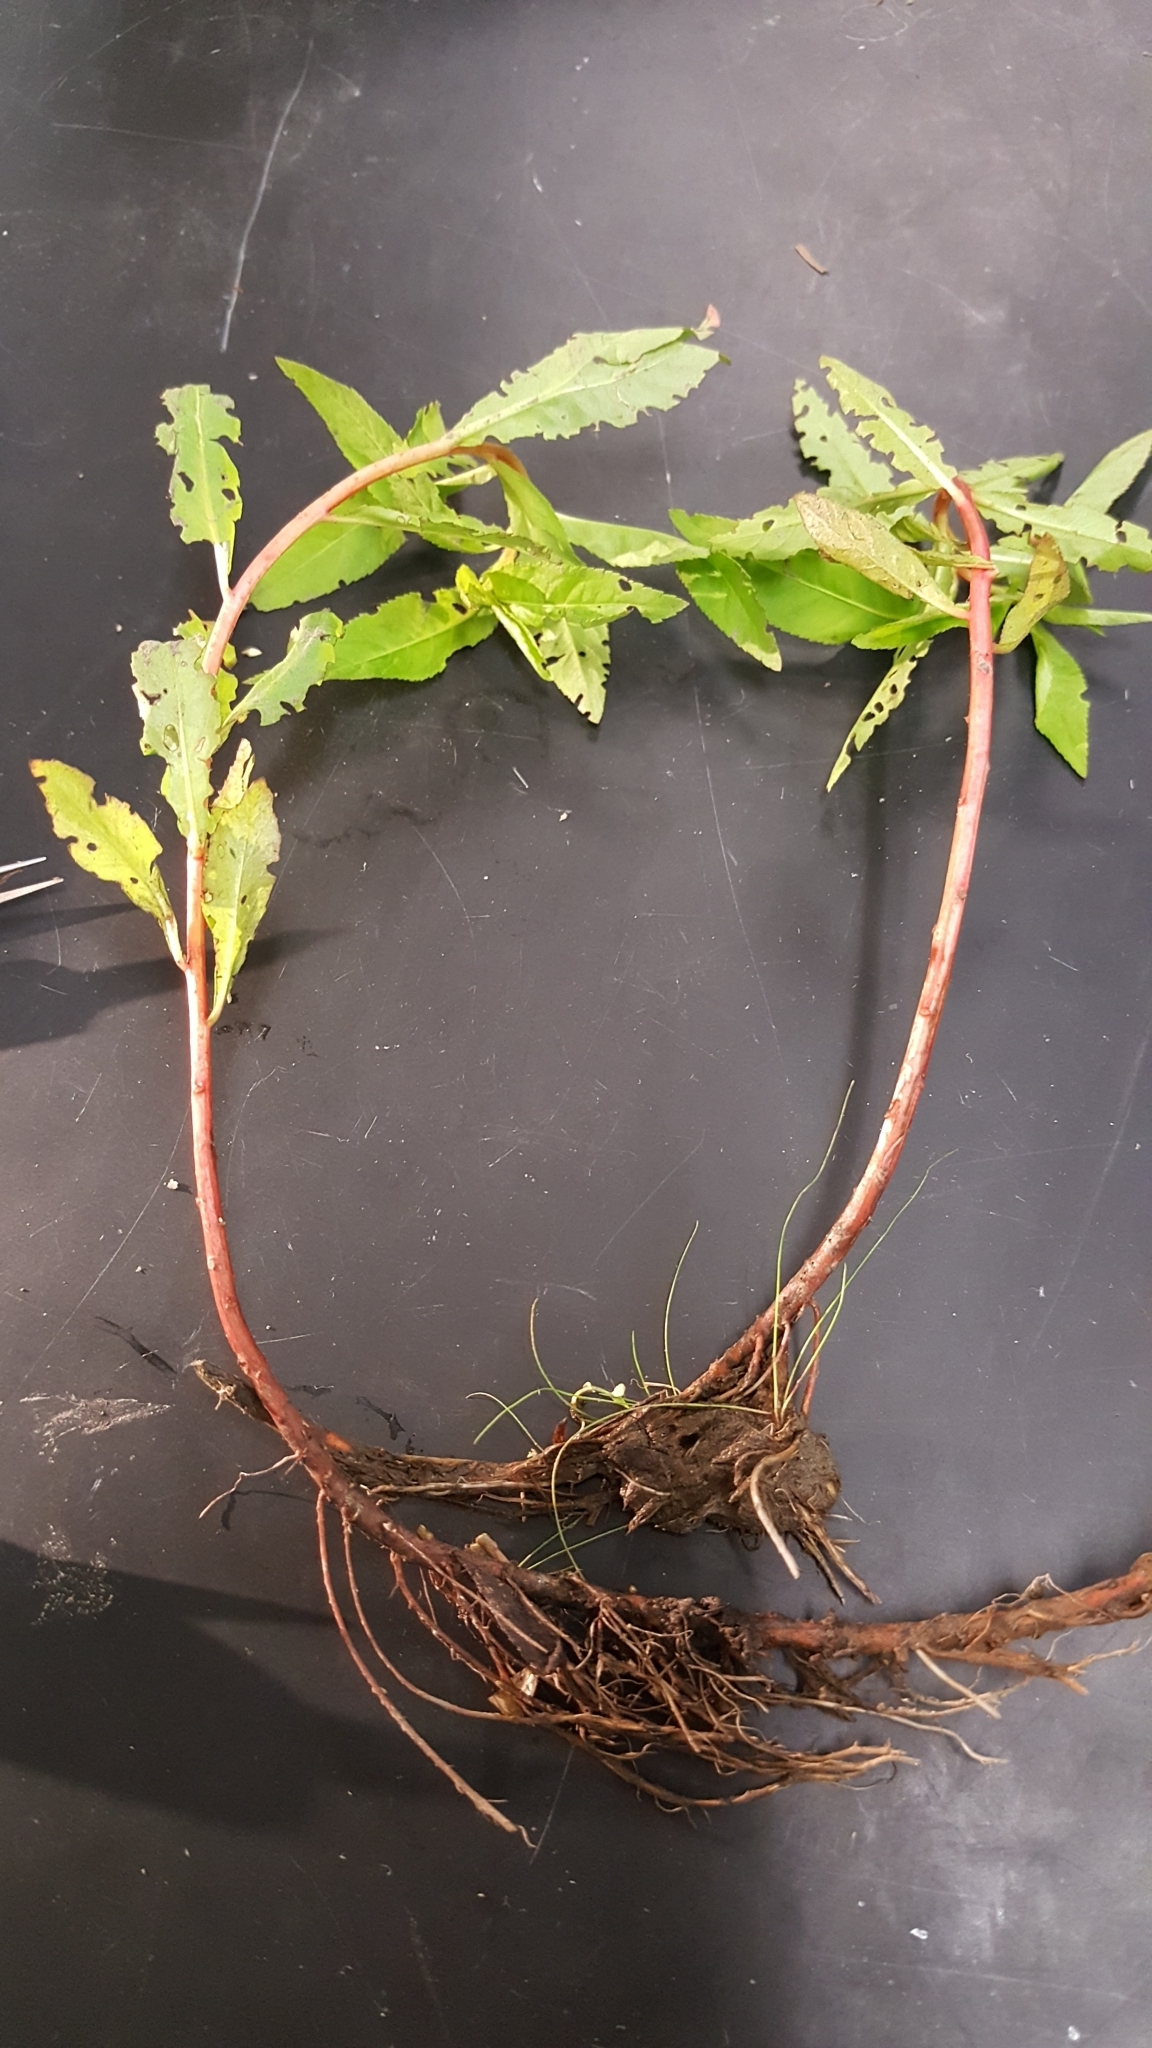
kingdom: Plantae
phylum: Tracheophyta
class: Magnoliopsida
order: Saxifragales
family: Penthoraceae
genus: Penthorum
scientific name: Penthorum sedoides
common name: Ditch stonecrop
